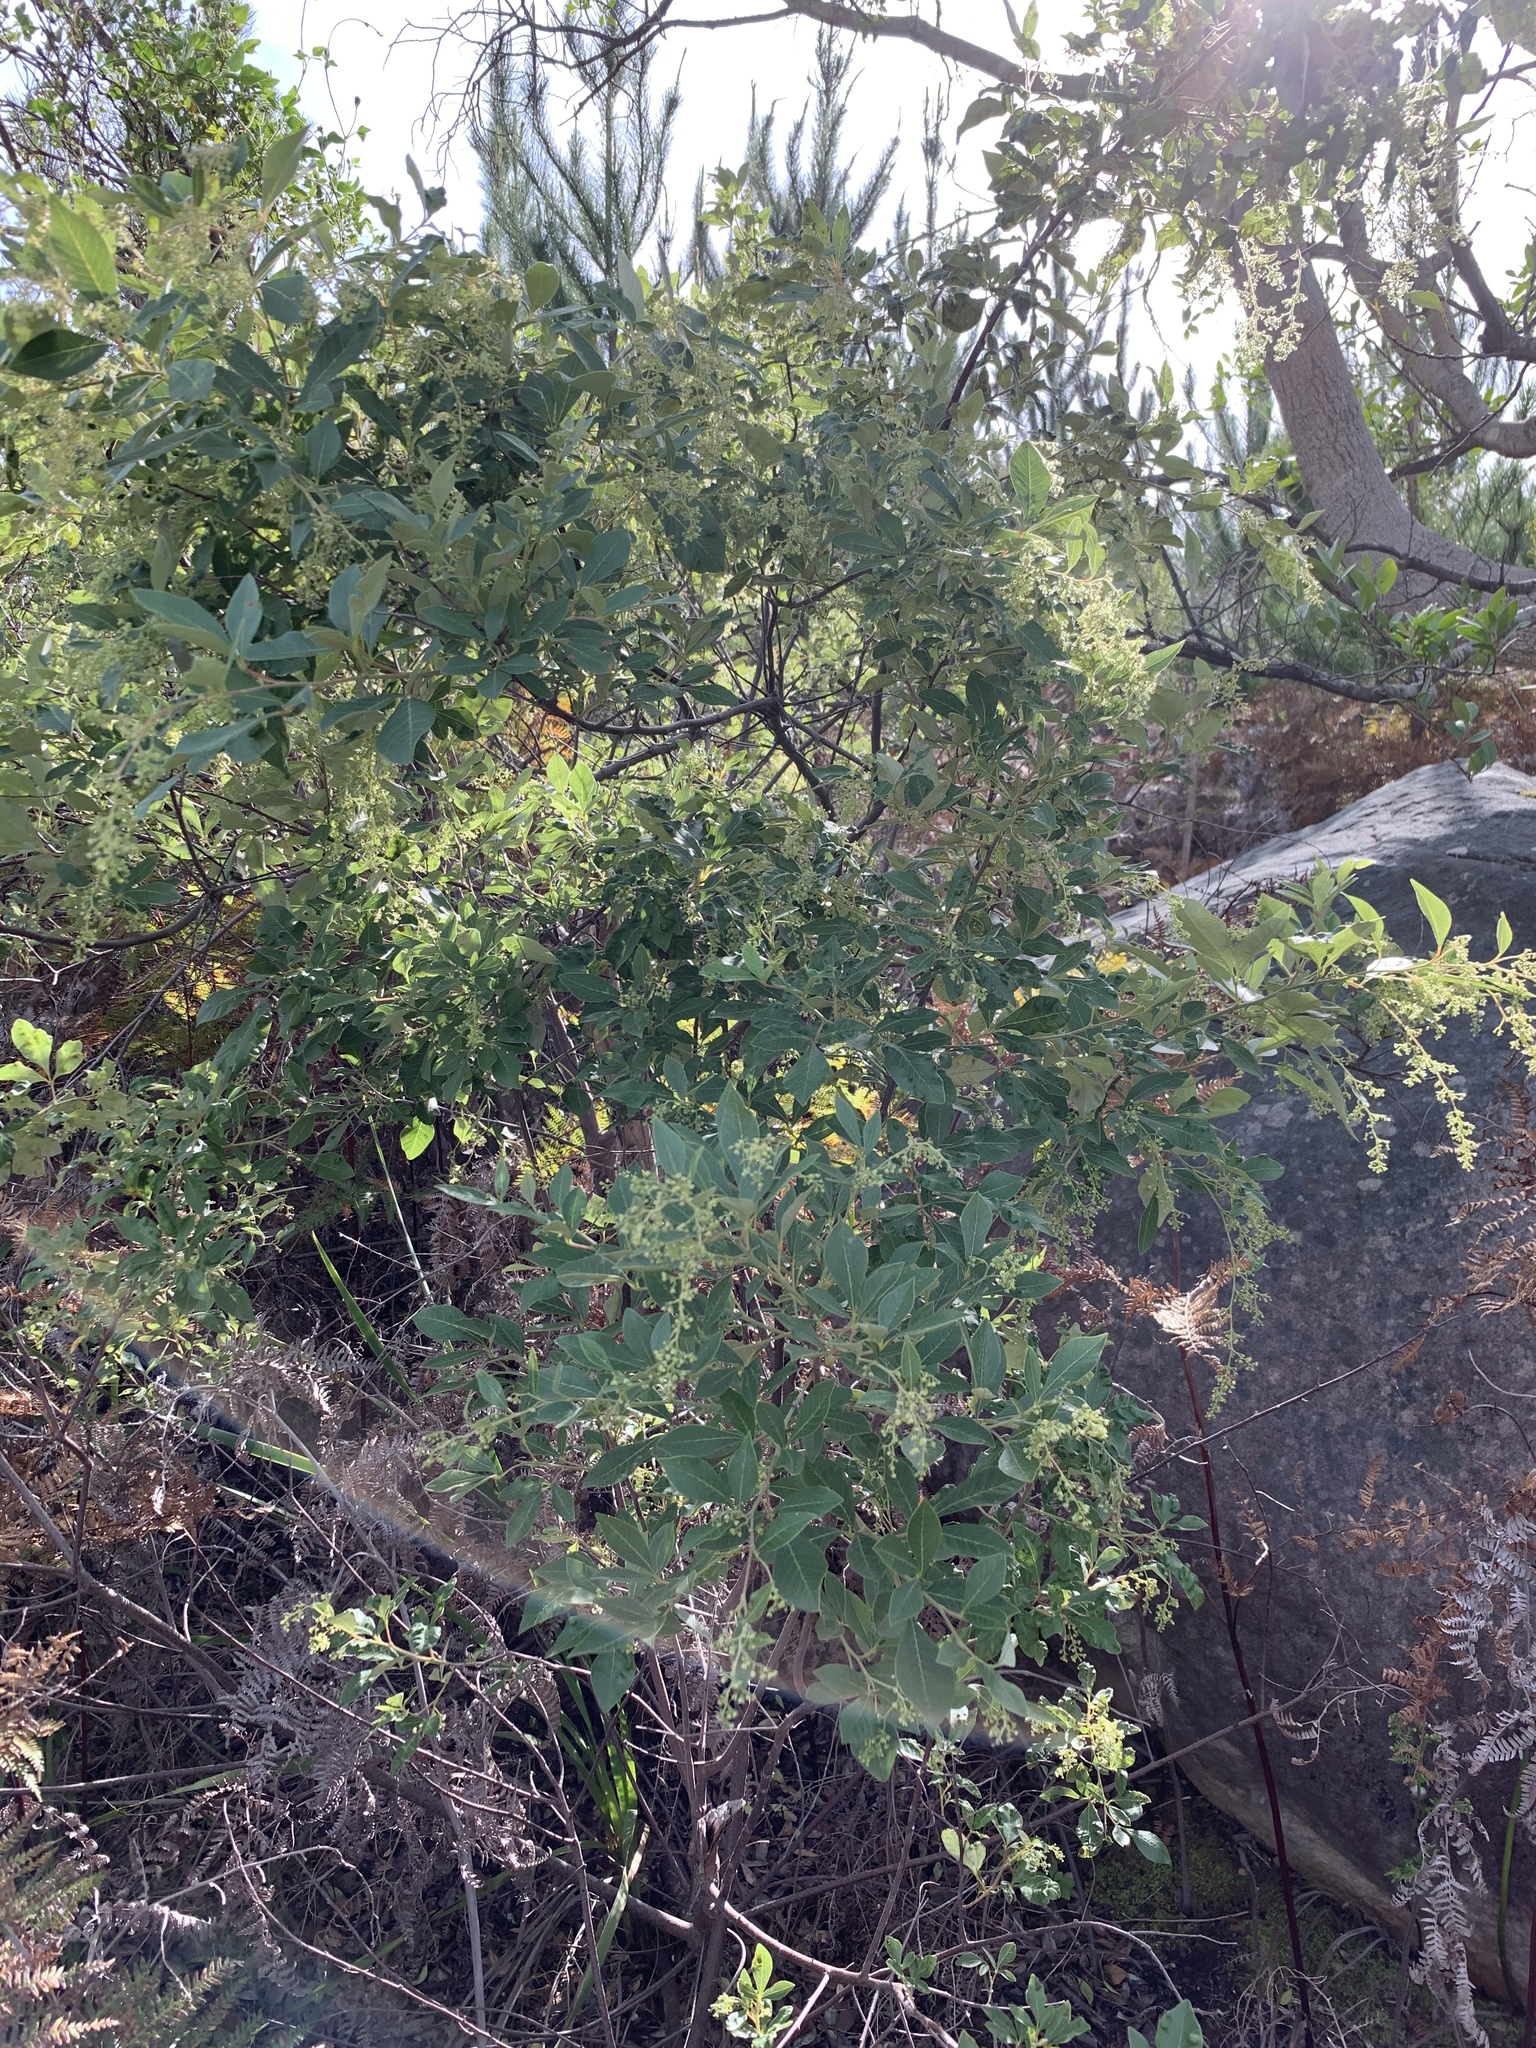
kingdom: Plantae
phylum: Tracheophyta
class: Magnoliopsida
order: Sapindales
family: Anacardiaceae
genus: Searsia
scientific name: Searsia tomentosa
